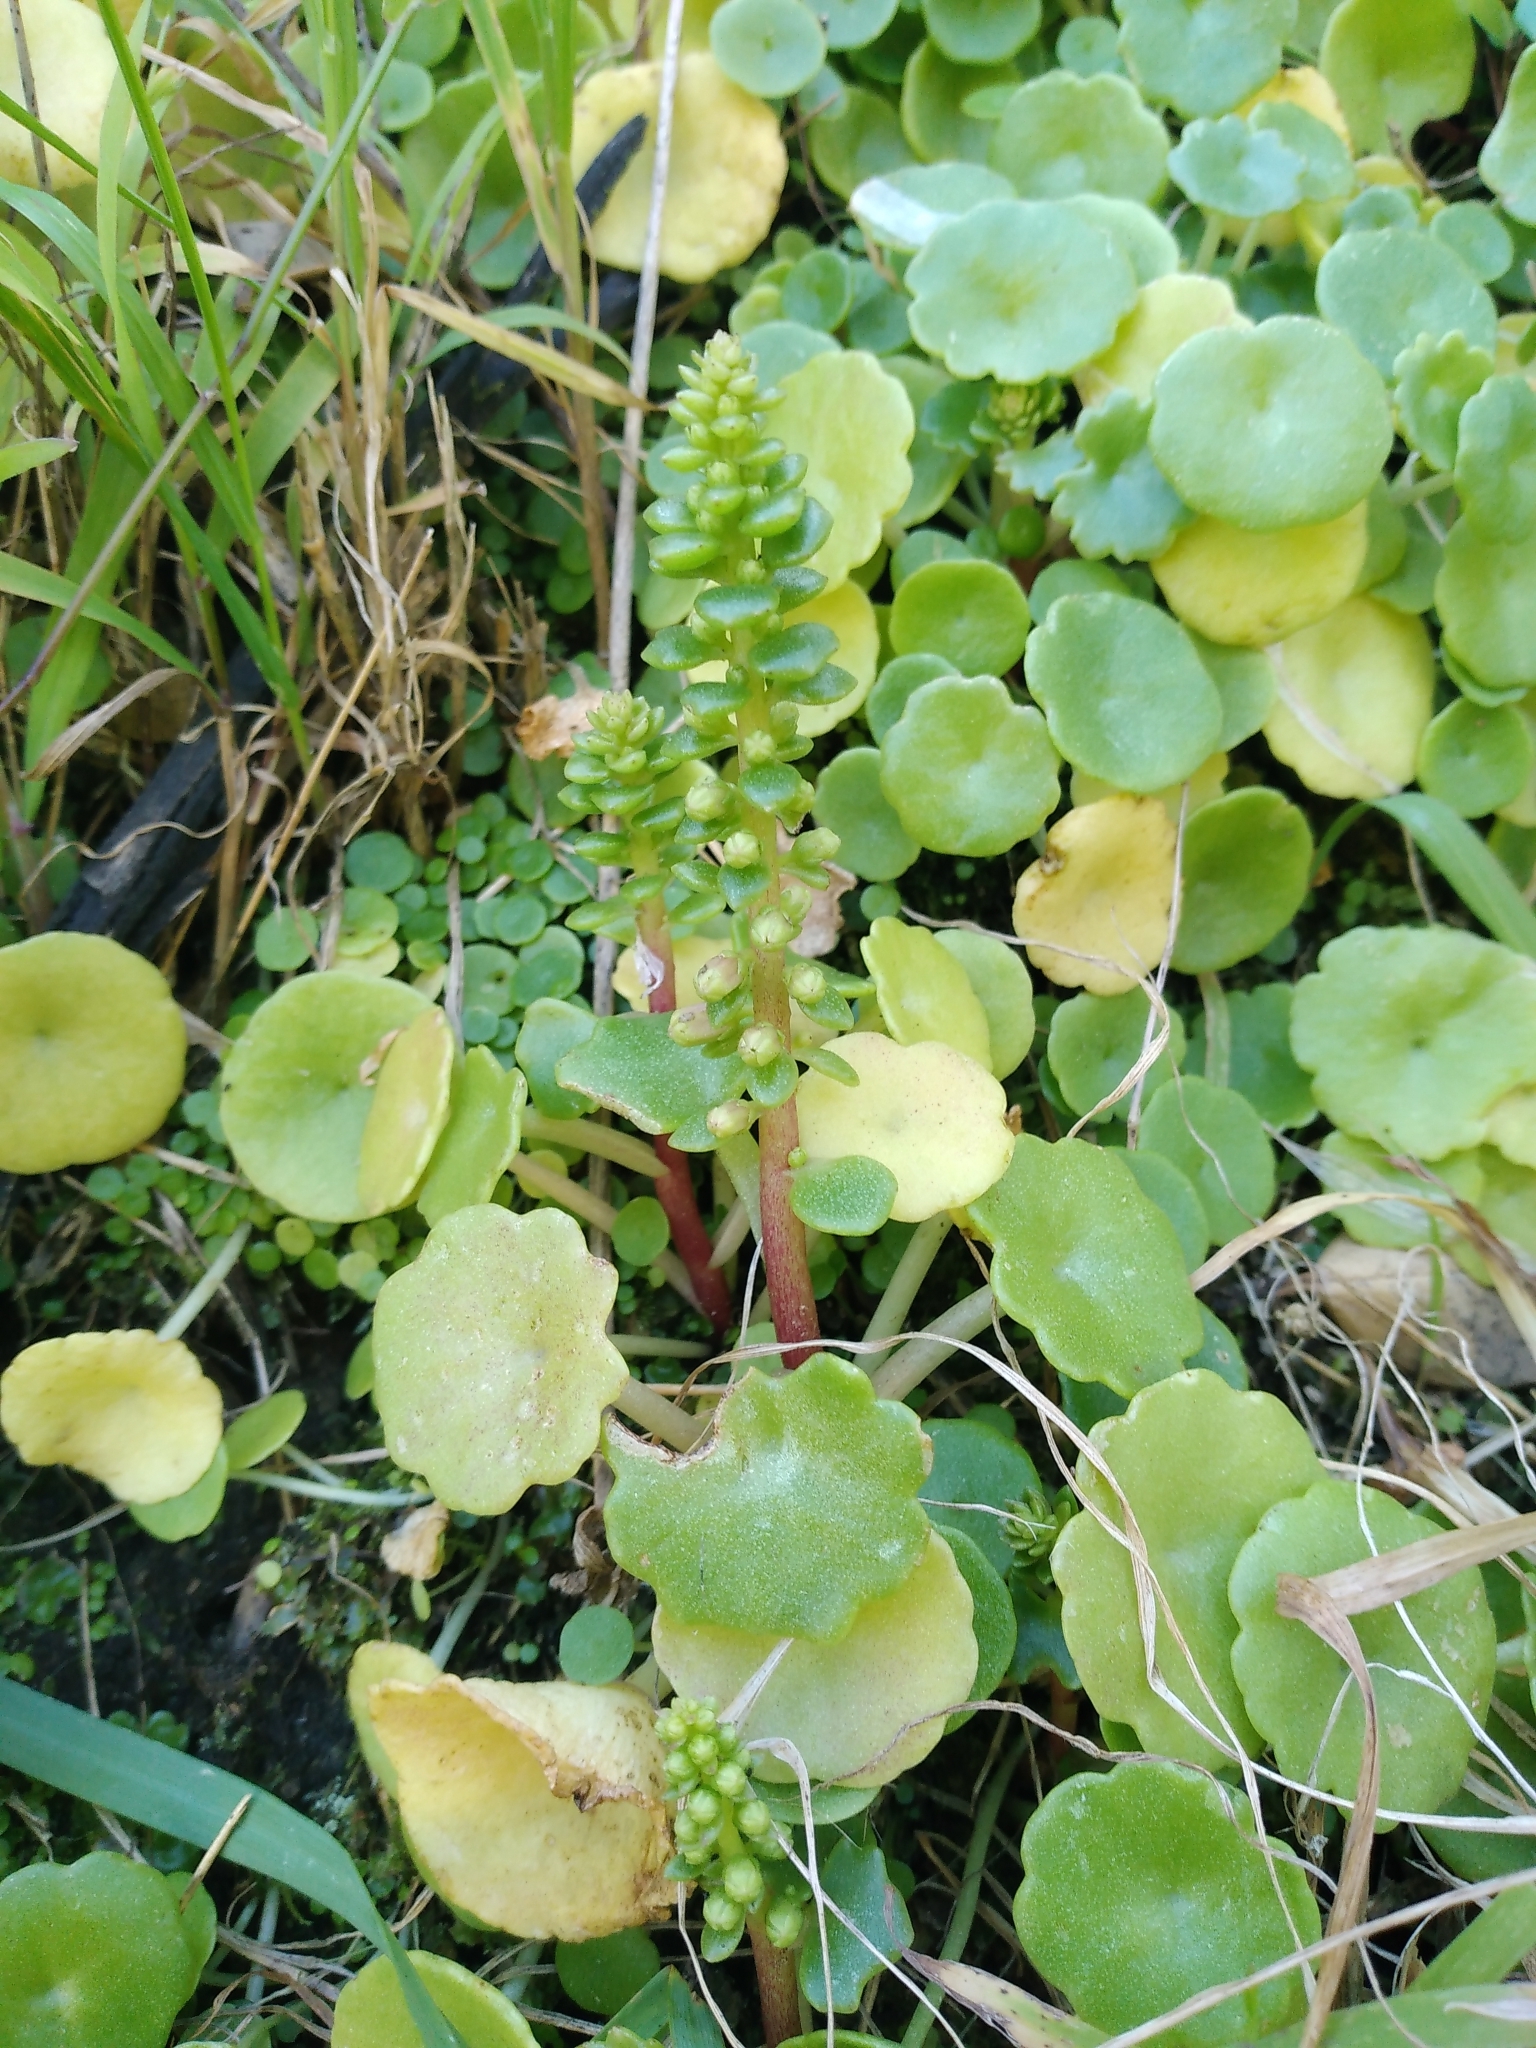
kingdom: Plantae
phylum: Tracheophyta
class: Magnoliopsida
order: Saxifragales
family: Crassulaceae
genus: Umbilicus
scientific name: Umbilicus rupestris
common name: Navelwort
